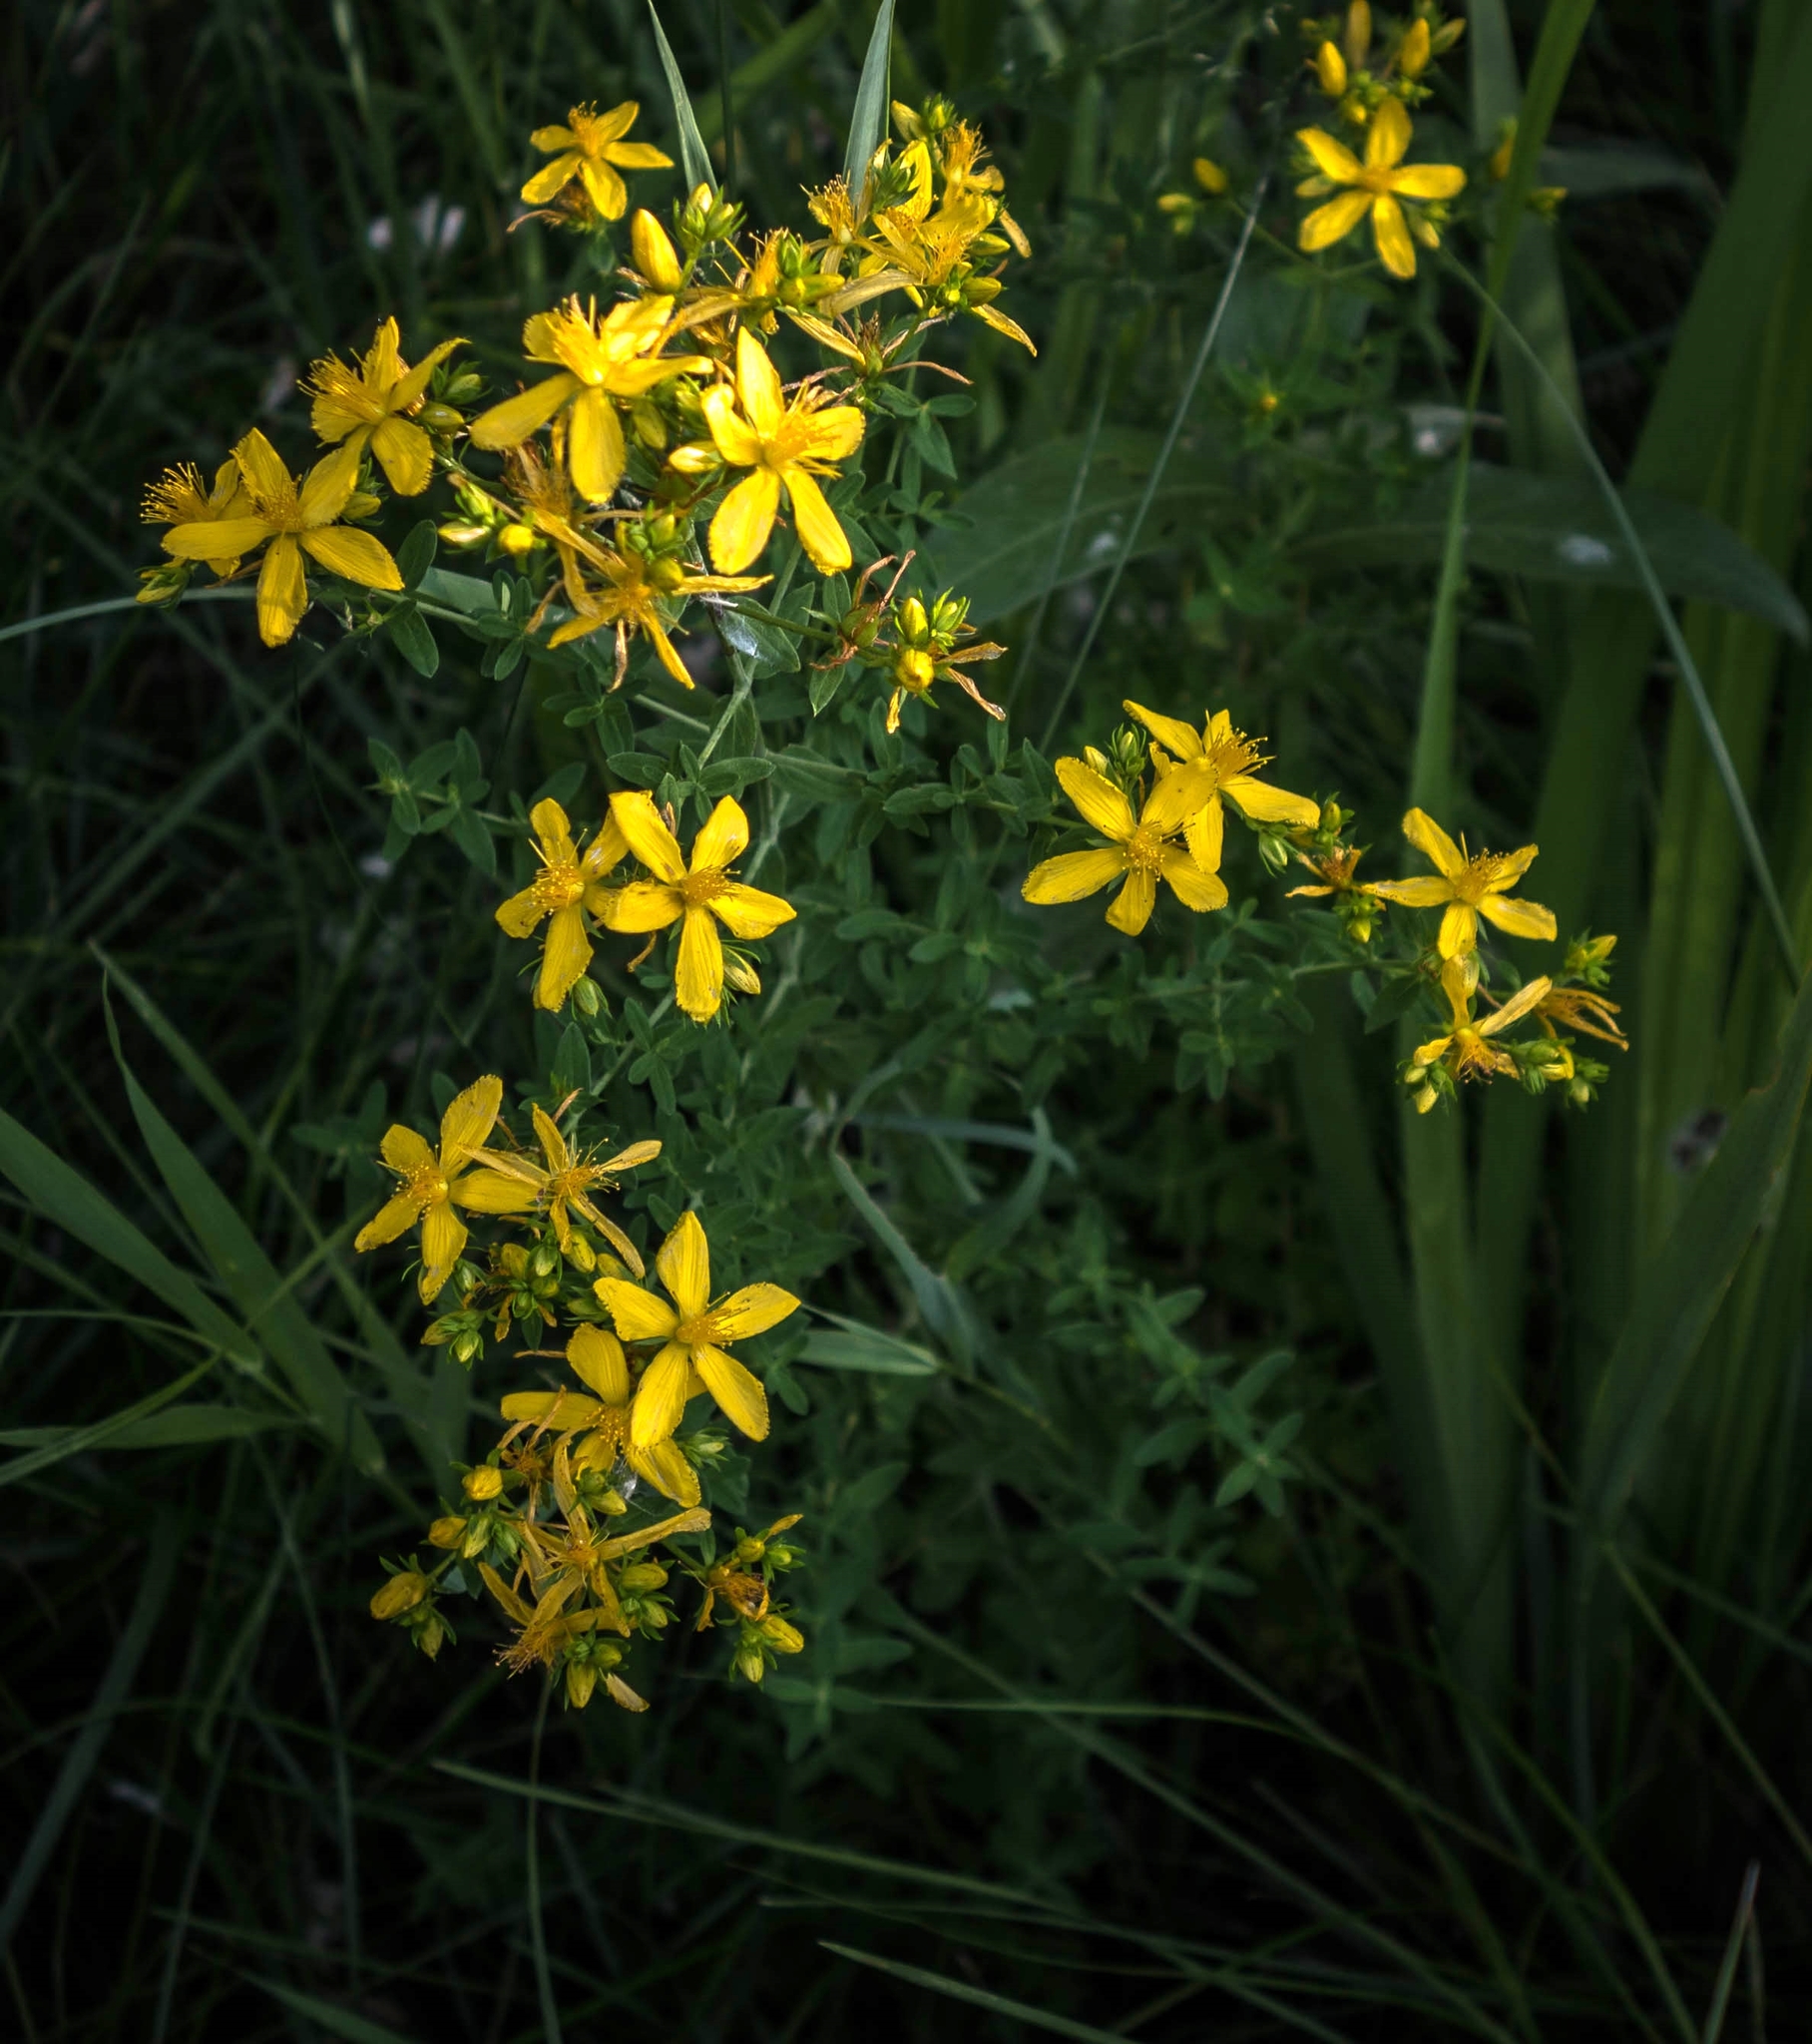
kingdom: Plantae
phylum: Tracheophyta
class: Magnoliopsida
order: Malpighiales
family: Hypericaceae
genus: Hypericum
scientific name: Hypericum perforatum
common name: Common st. johnswort
